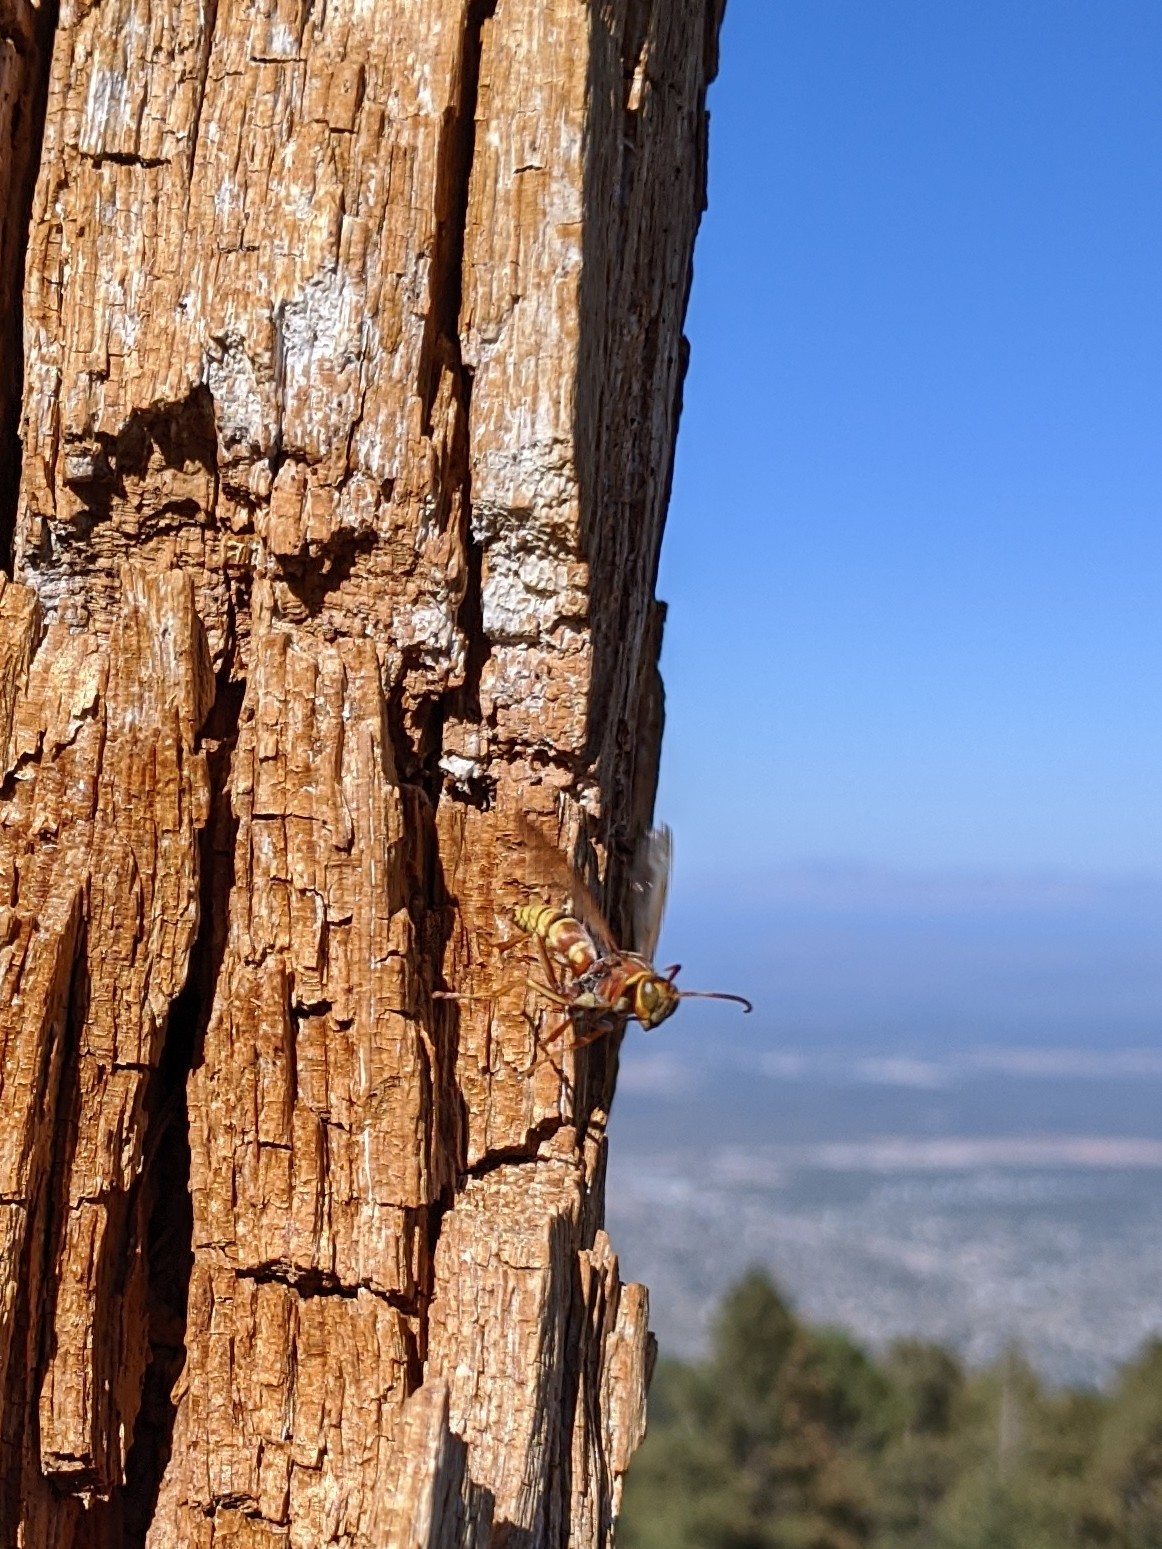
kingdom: Animalia
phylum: Arthropoda
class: Insecta
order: Hymenoptera
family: Eumenidae
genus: Polistes
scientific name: Polistes dorsalis
